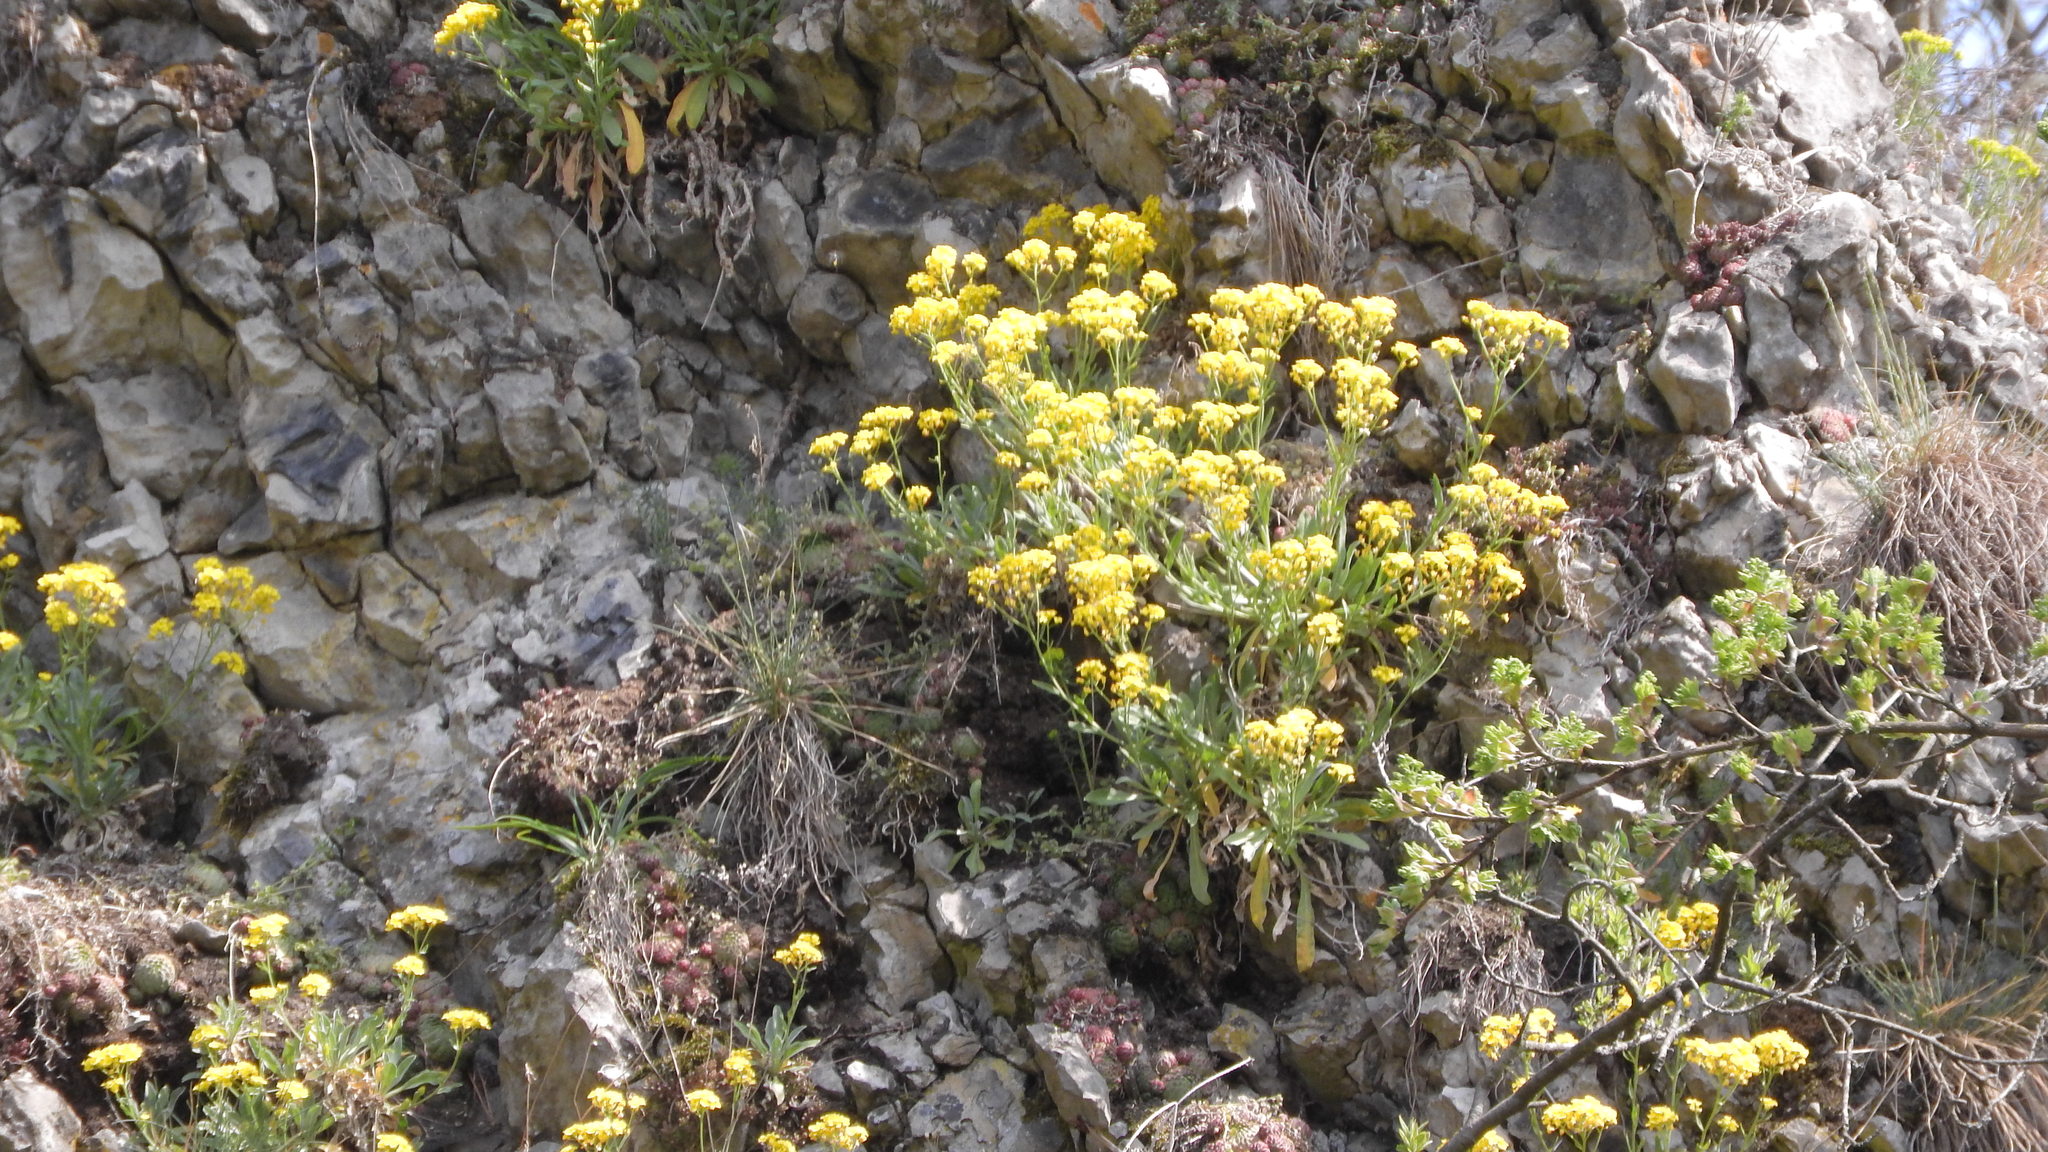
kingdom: Plantae
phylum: Tracheophyta
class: Magnoliopsida
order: Brassicales
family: Brassicaceae
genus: Aurinia
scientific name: Aurinia saxatilis
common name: Golden-tuft alyssum
